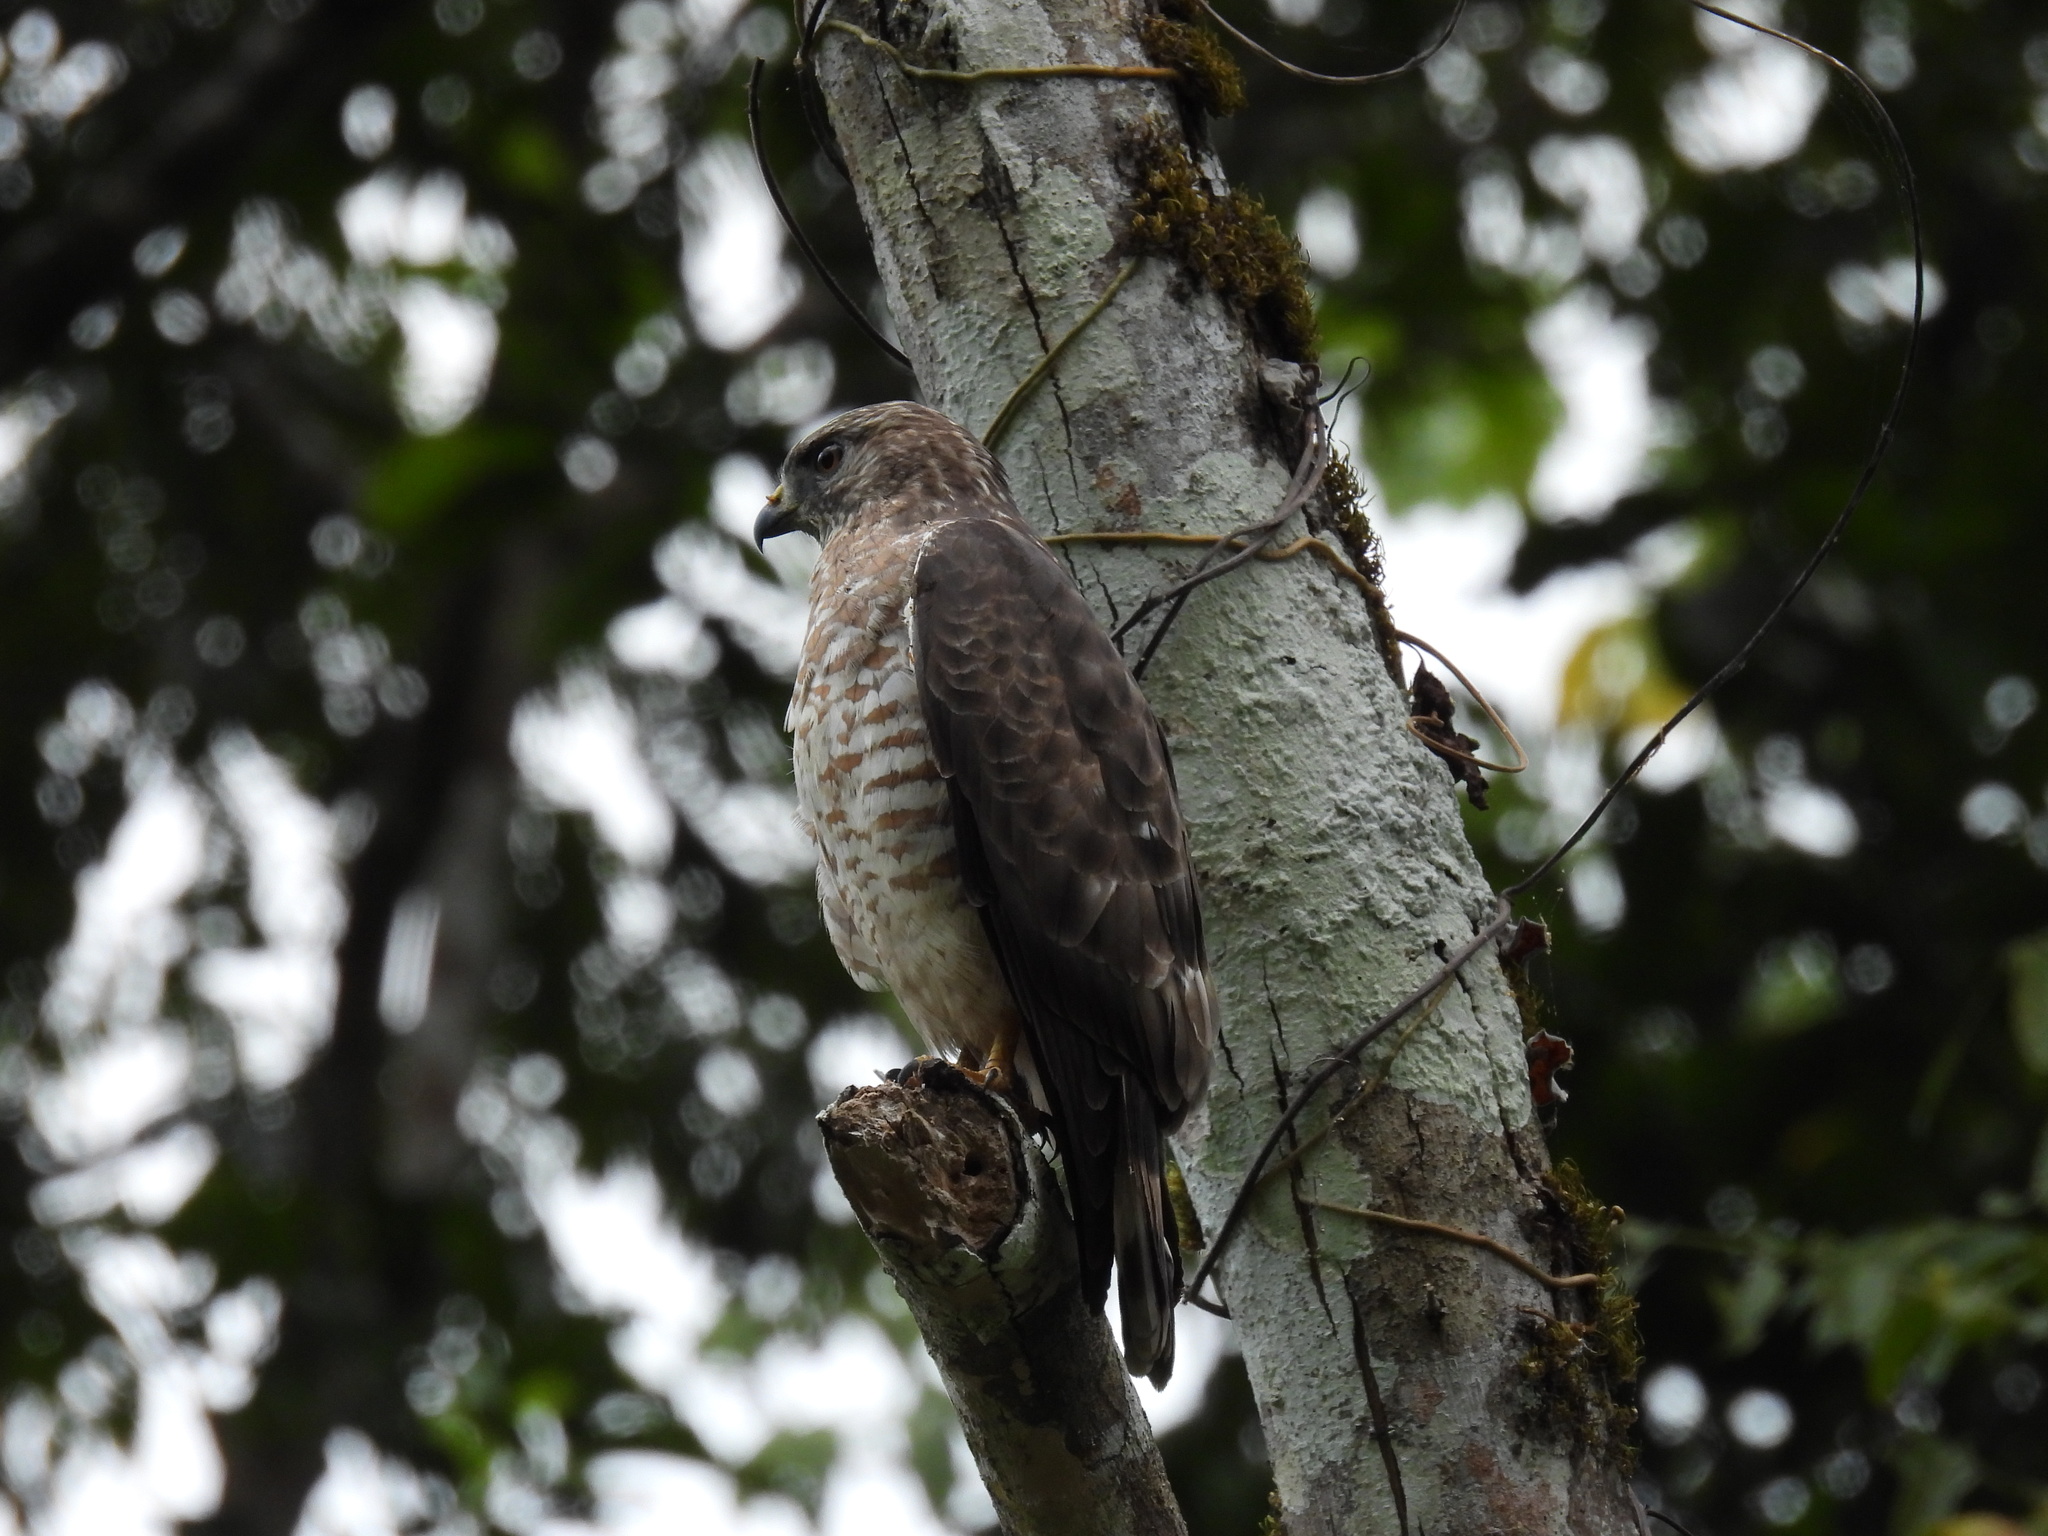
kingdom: Animalia
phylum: Chordata
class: Aves
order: Accipitriformes
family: Accipitridae
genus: Buteo
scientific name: Buteo platypterus
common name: Broad-winged hawk
